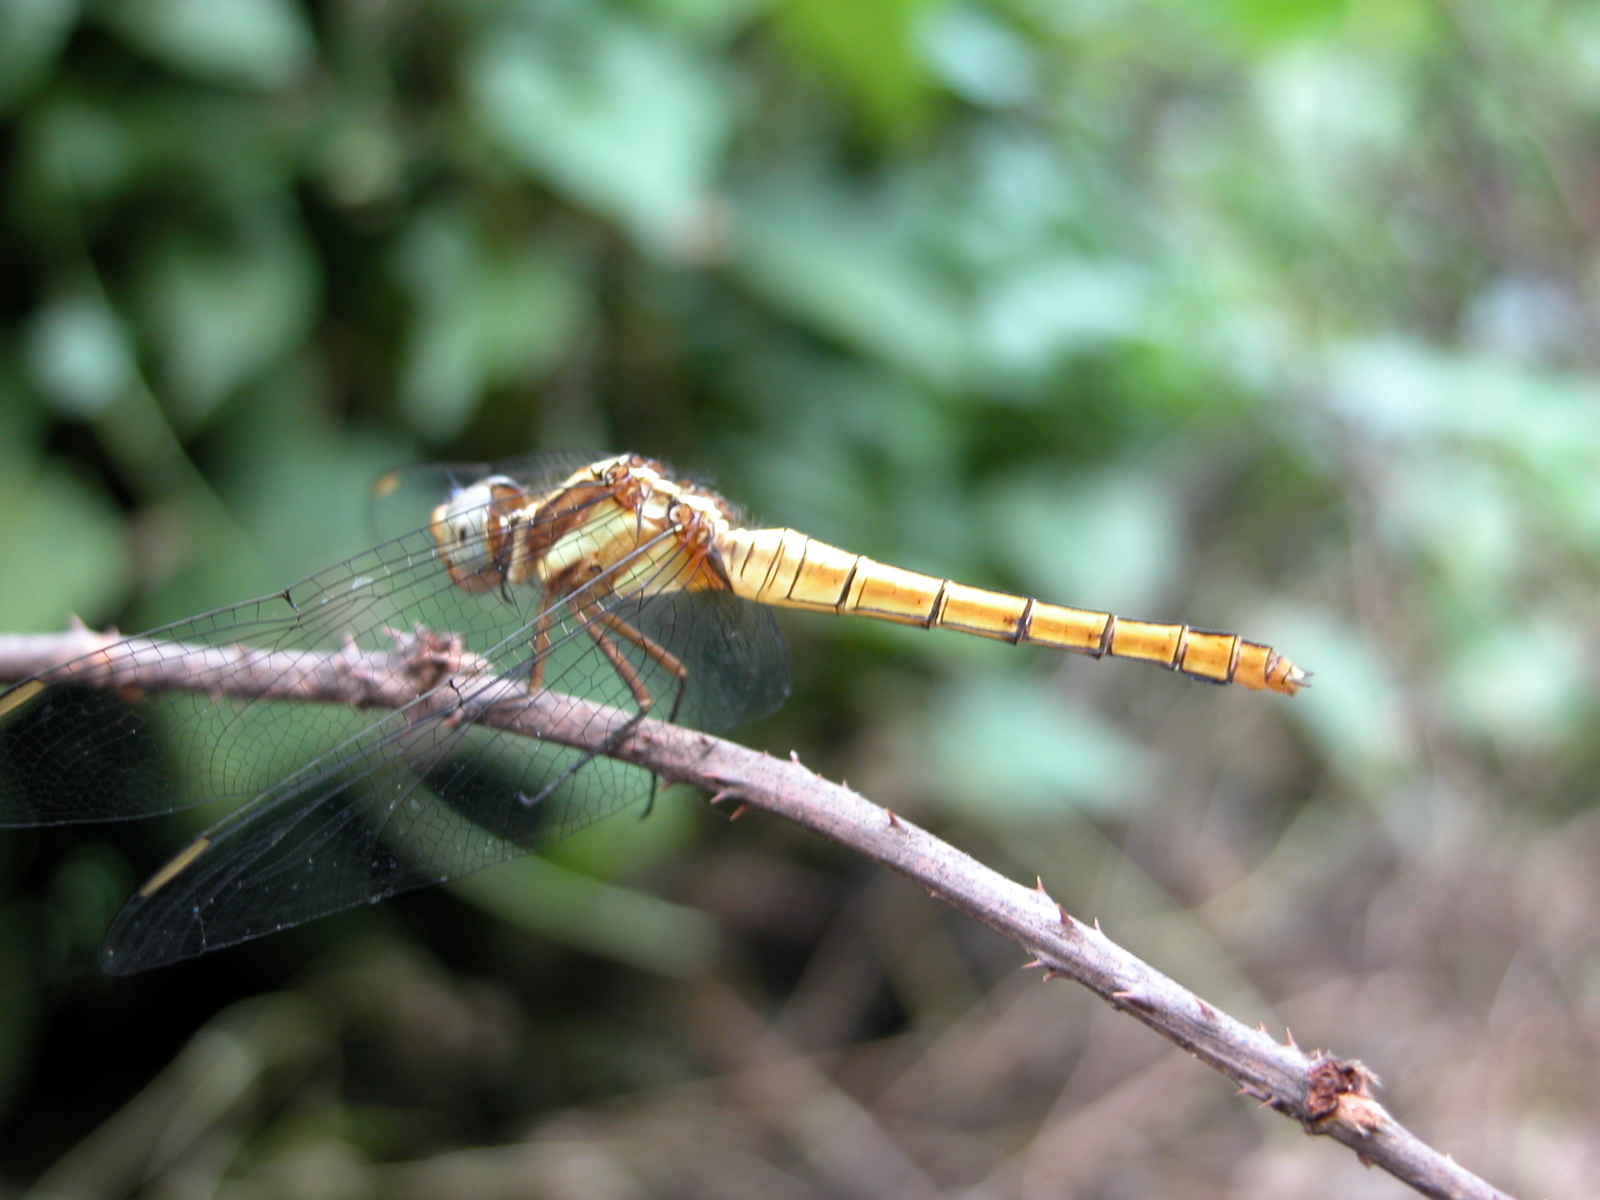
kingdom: Animalia
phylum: Arthropoda
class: Insecta
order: Odonata
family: Libellulidae
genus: Orthetrum
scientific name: Orthetrum glaucum
